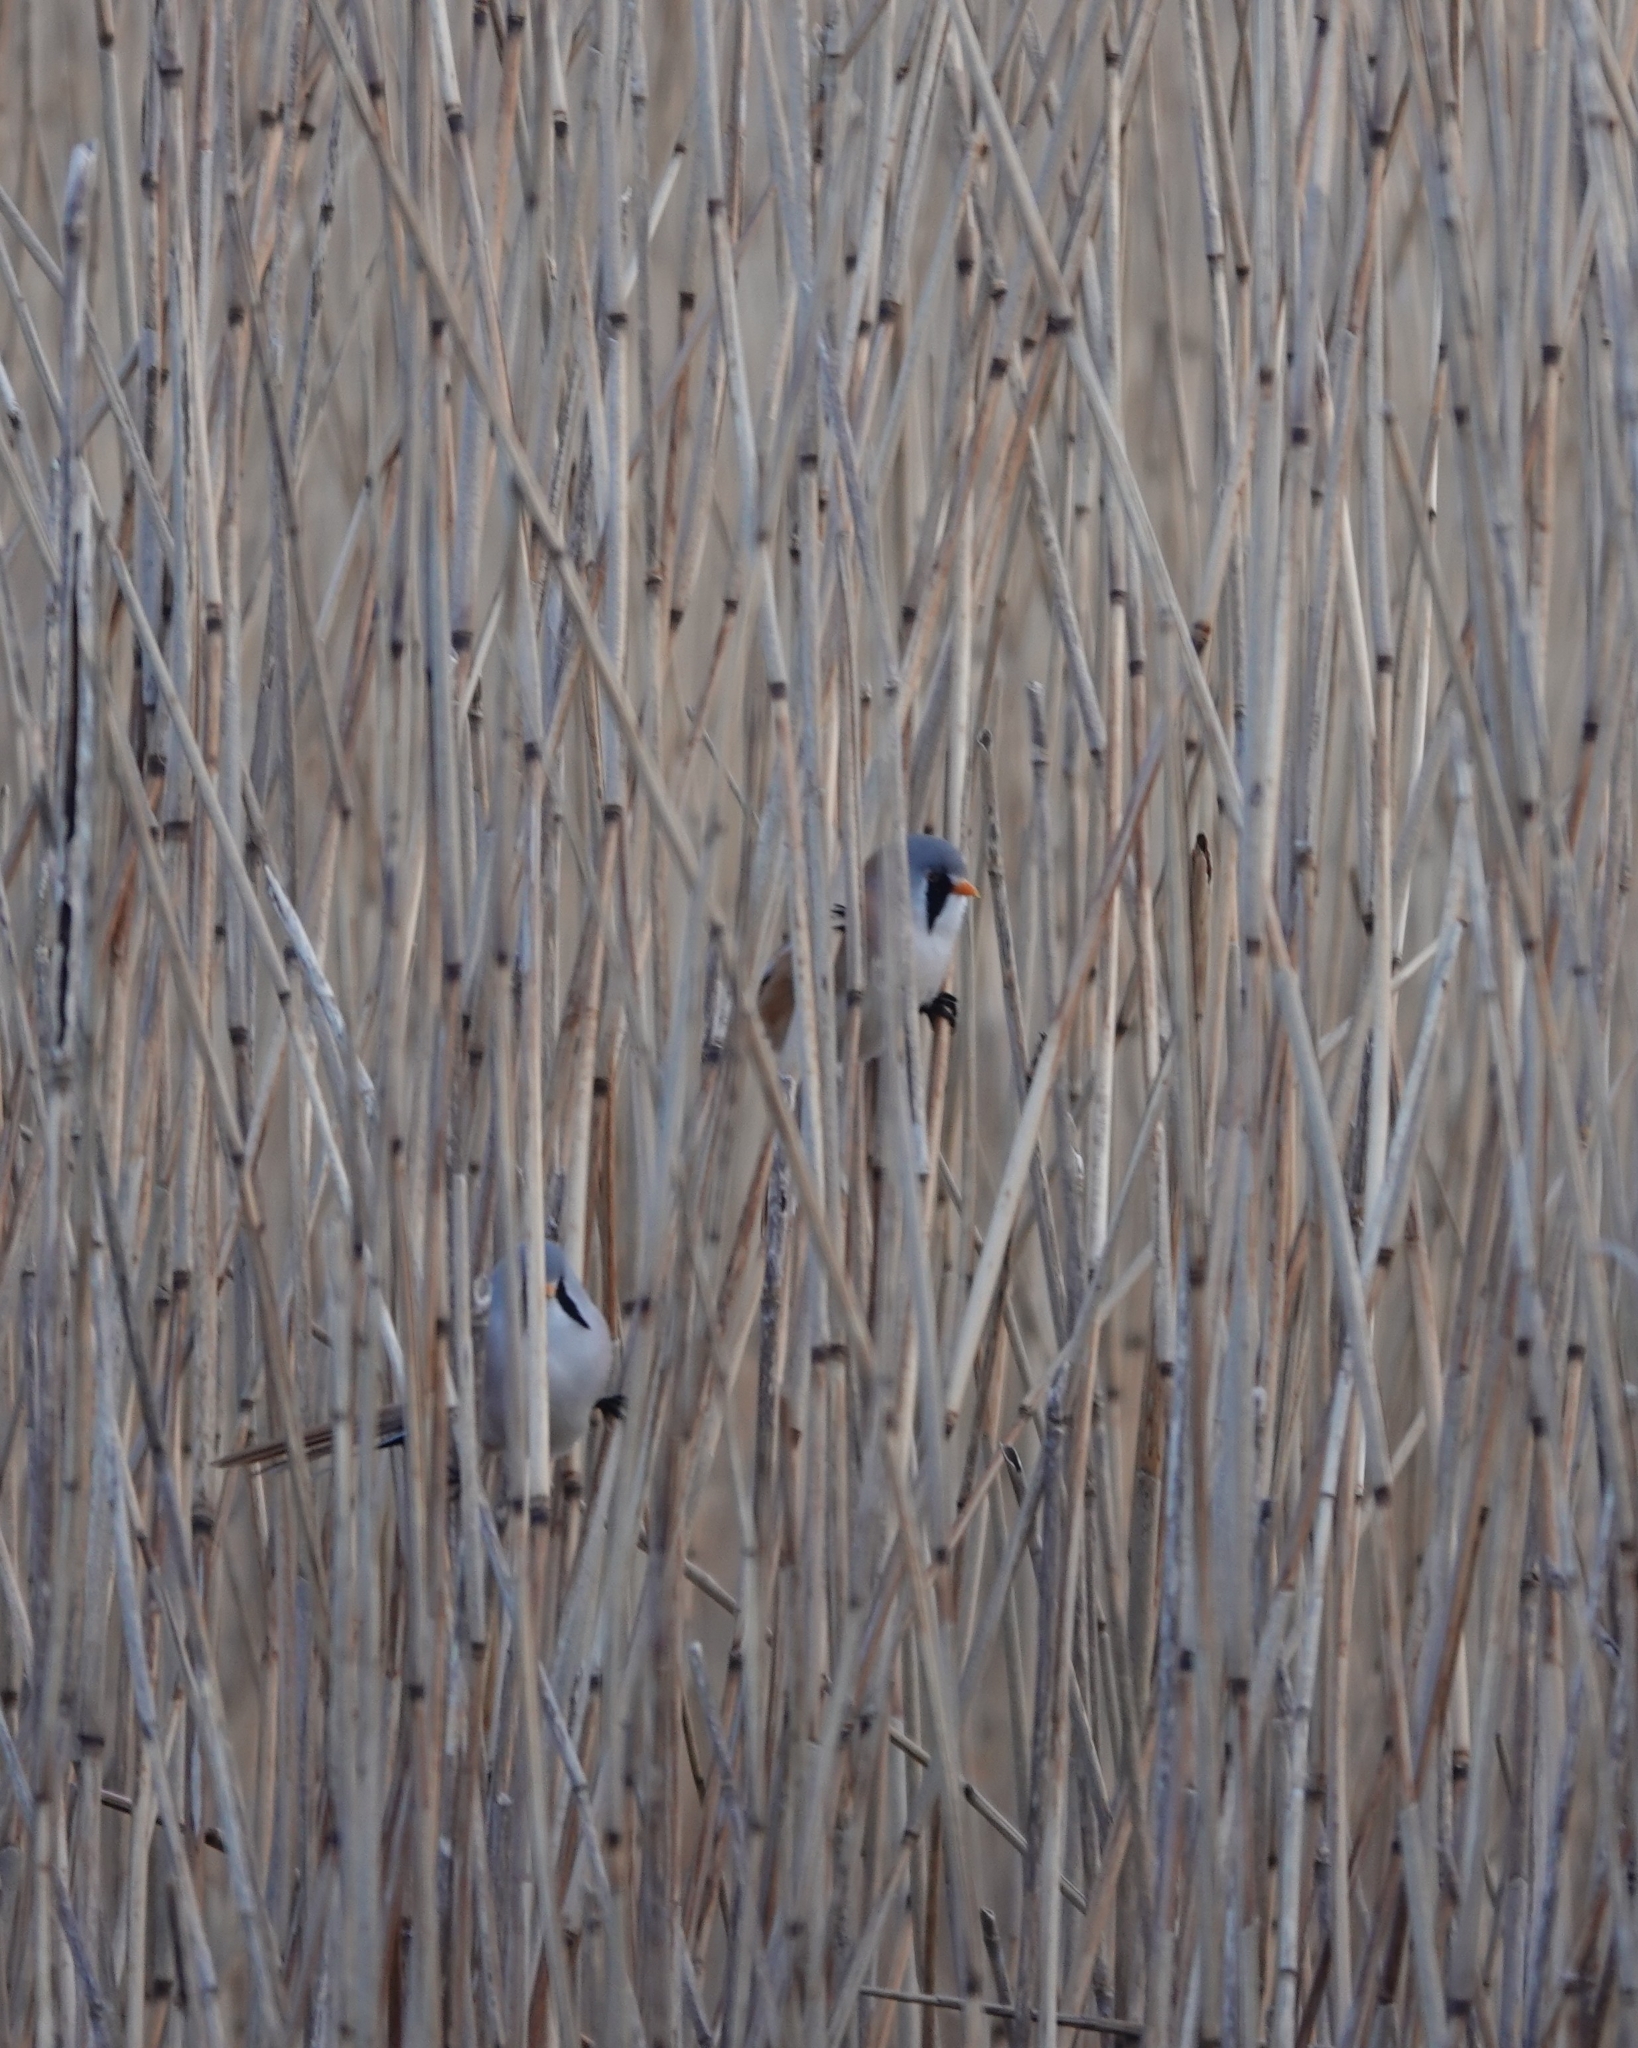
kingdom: Animalia
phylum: Chordata
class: Aves
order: Passeriformes
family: Panuridae
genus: Panurus
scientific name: Panurus biarmicus
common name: Bearded reedling
